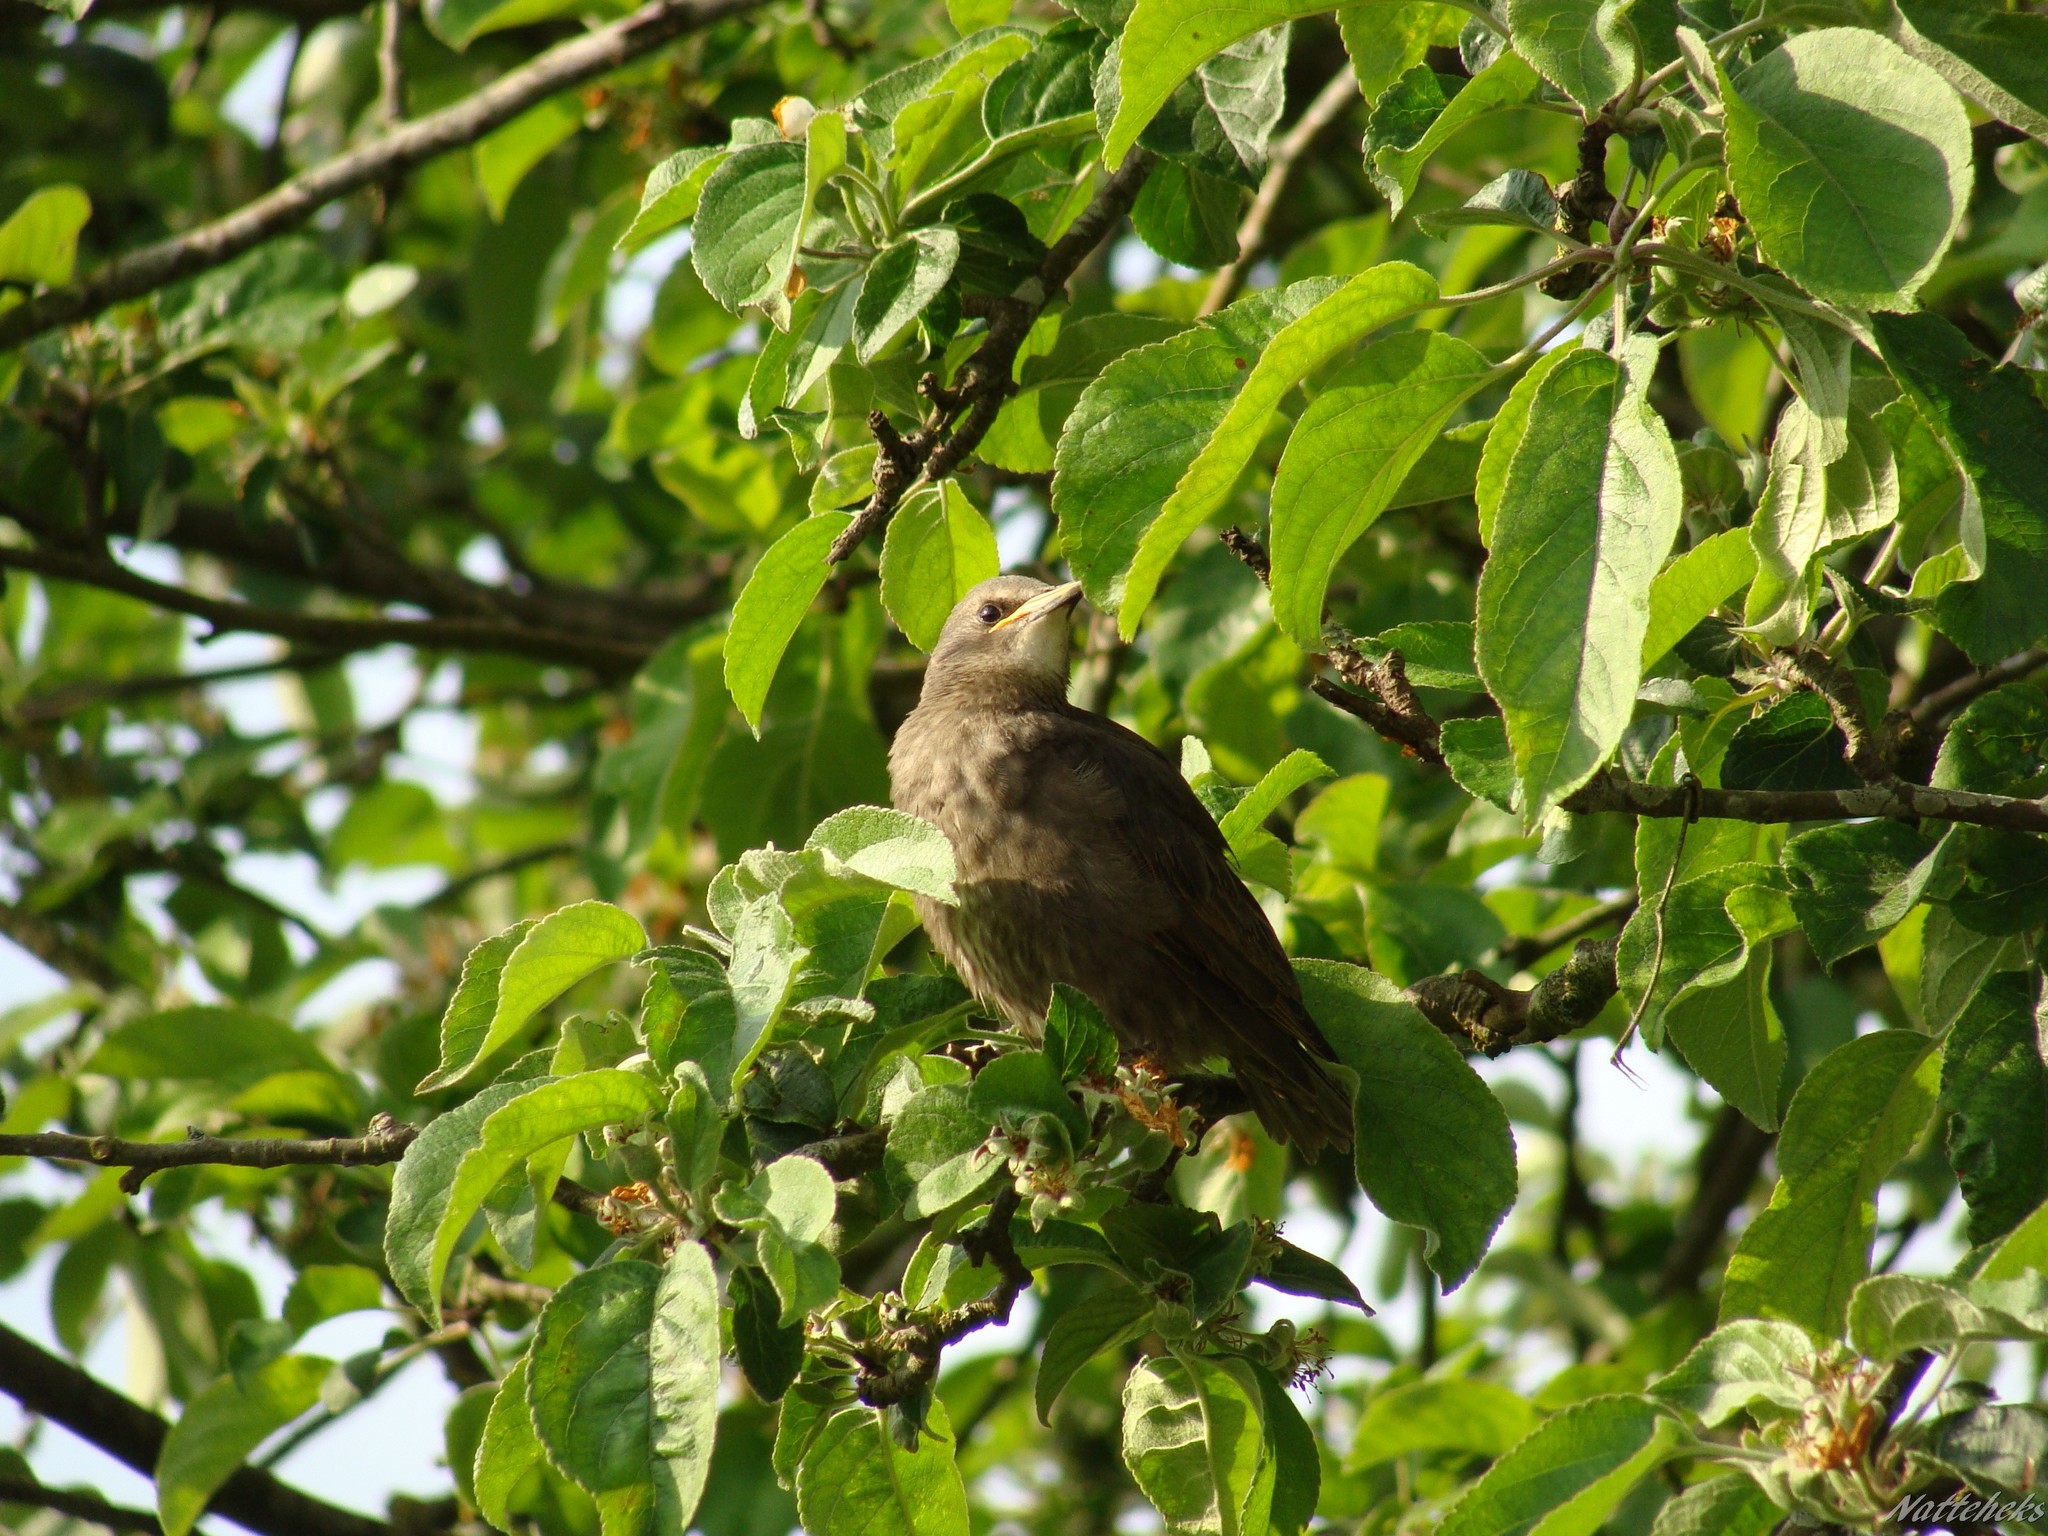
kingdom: Animalia
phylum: Chordata
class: Aves
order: Passeriformes
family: Sturnidae
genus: Sturnus
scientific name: Sturnus vulgaris
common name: Common starling
